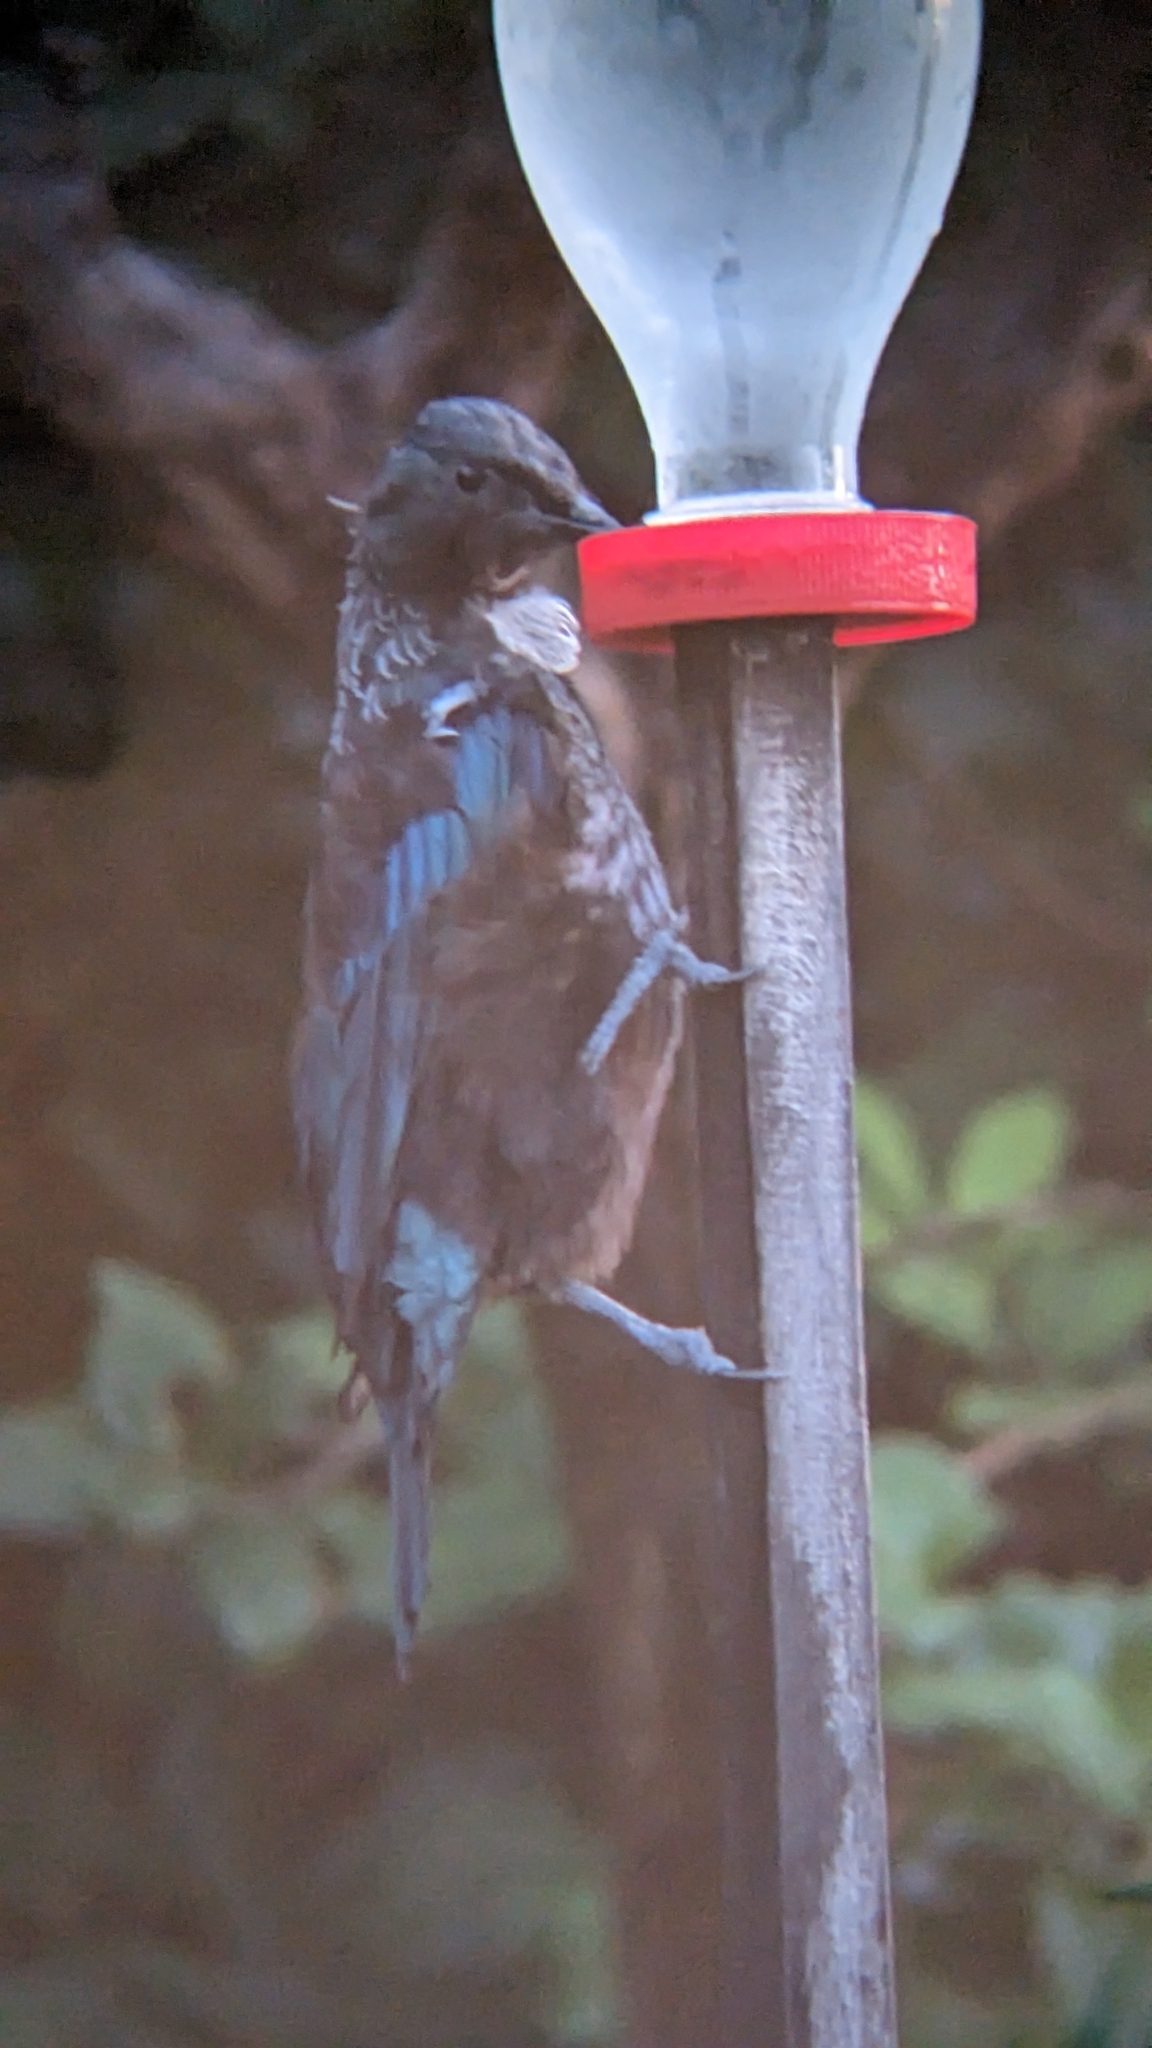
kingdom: Animalia
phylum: Chordata
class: Aves
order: Passeriformes
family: Meliphagidae
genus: Prosthemadera
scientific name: Prosthemadera novaeseelandiae
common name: Tui
